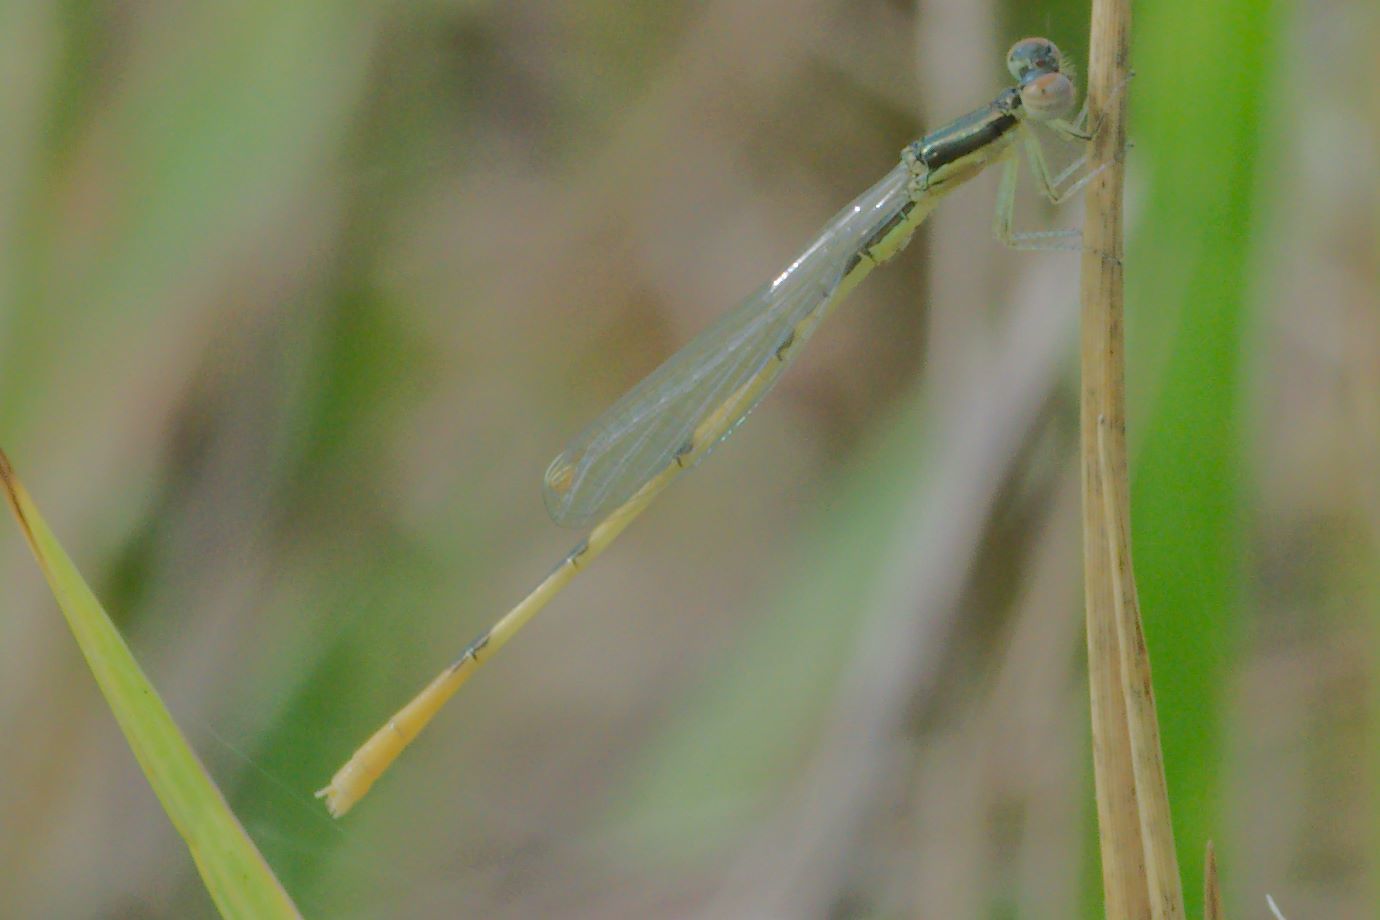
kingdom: Animalia
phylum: Arthropoda
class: Insecta
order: Odonata
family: Coenagrionidae
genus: Ischnura
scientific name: Ischnura hastata
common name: Citrine forktail
